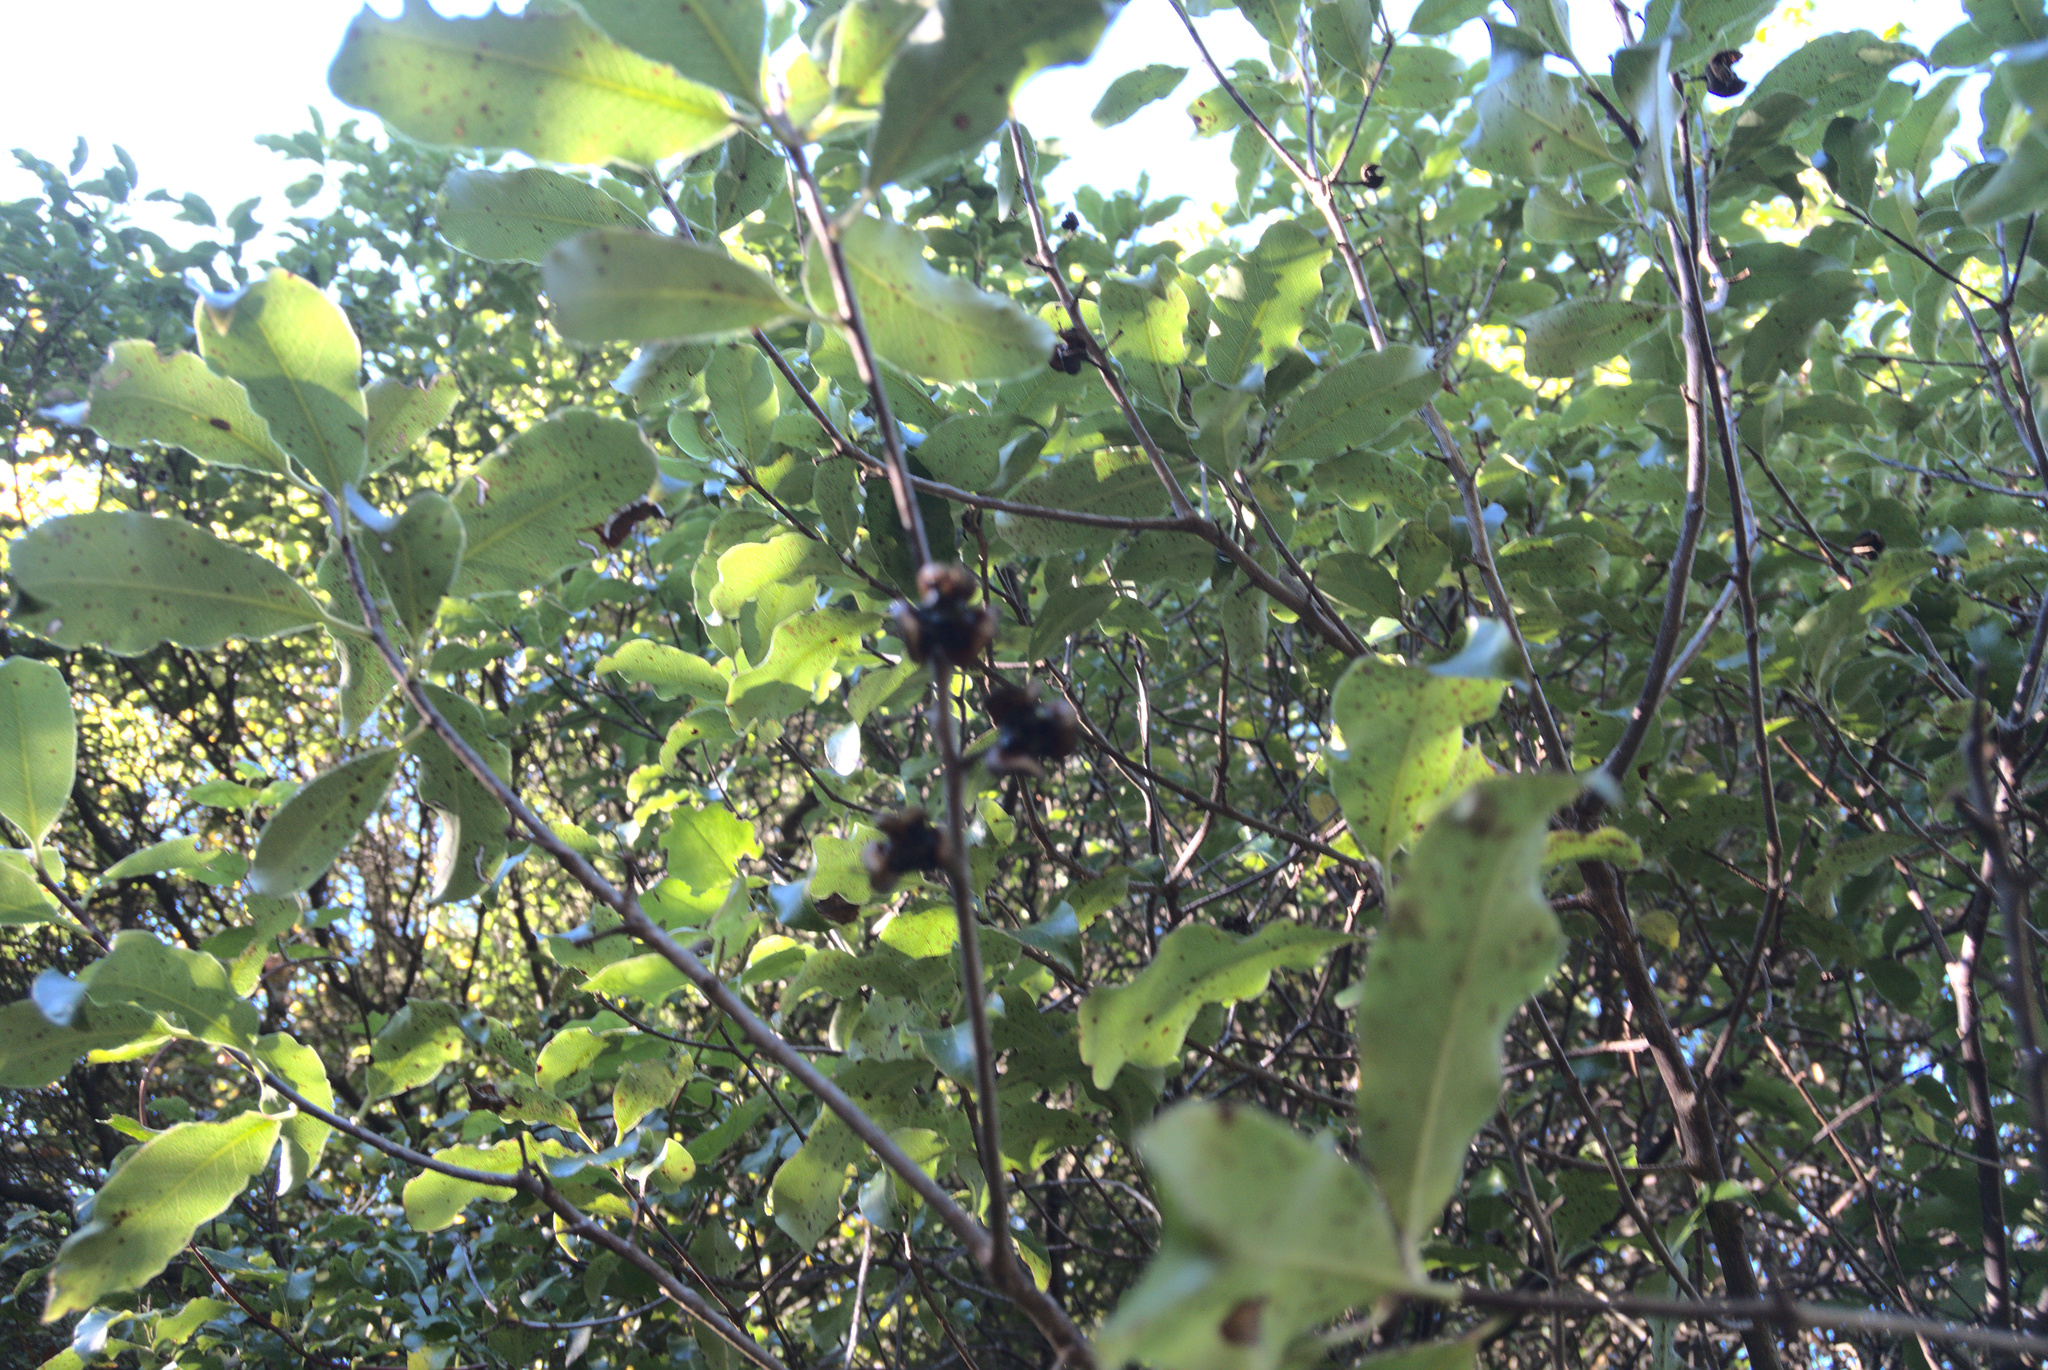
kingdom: Plantae
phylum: Tracheophyta
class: Magnoliopsida
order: Apiales
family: Pittosporaceae
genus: Pittosporum
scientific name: Pittosporum tenuifolium
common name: Kohuhu
